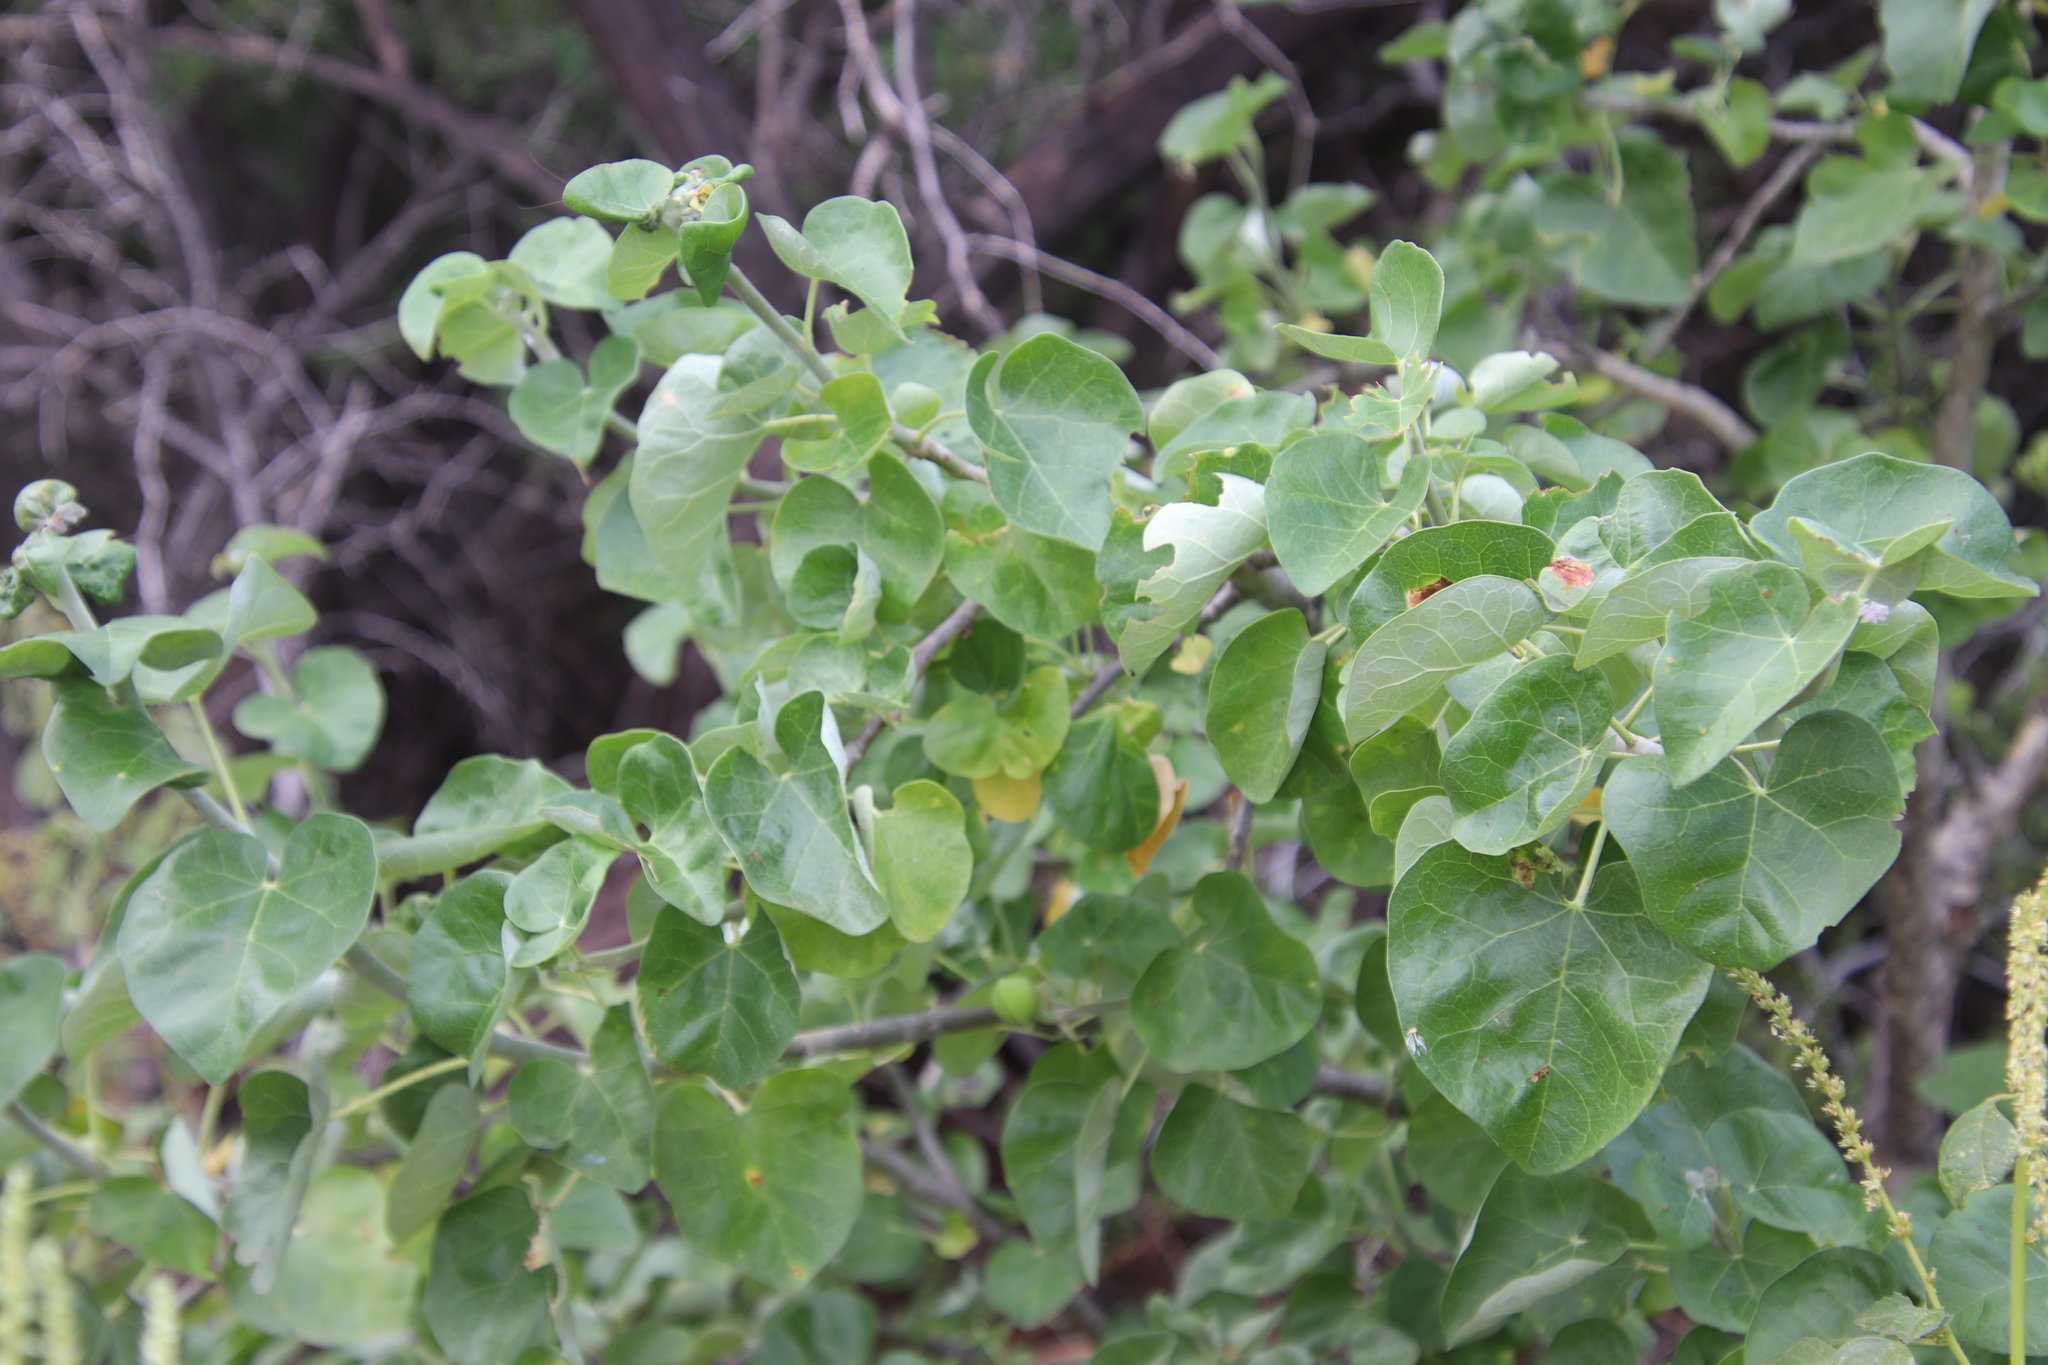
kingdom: Plantae
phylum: Tracheophyta
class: Magnoliopsida
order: Malpighiales
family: Euphorbiaceae
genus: Jatropha
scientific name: Jatropha cinerea
